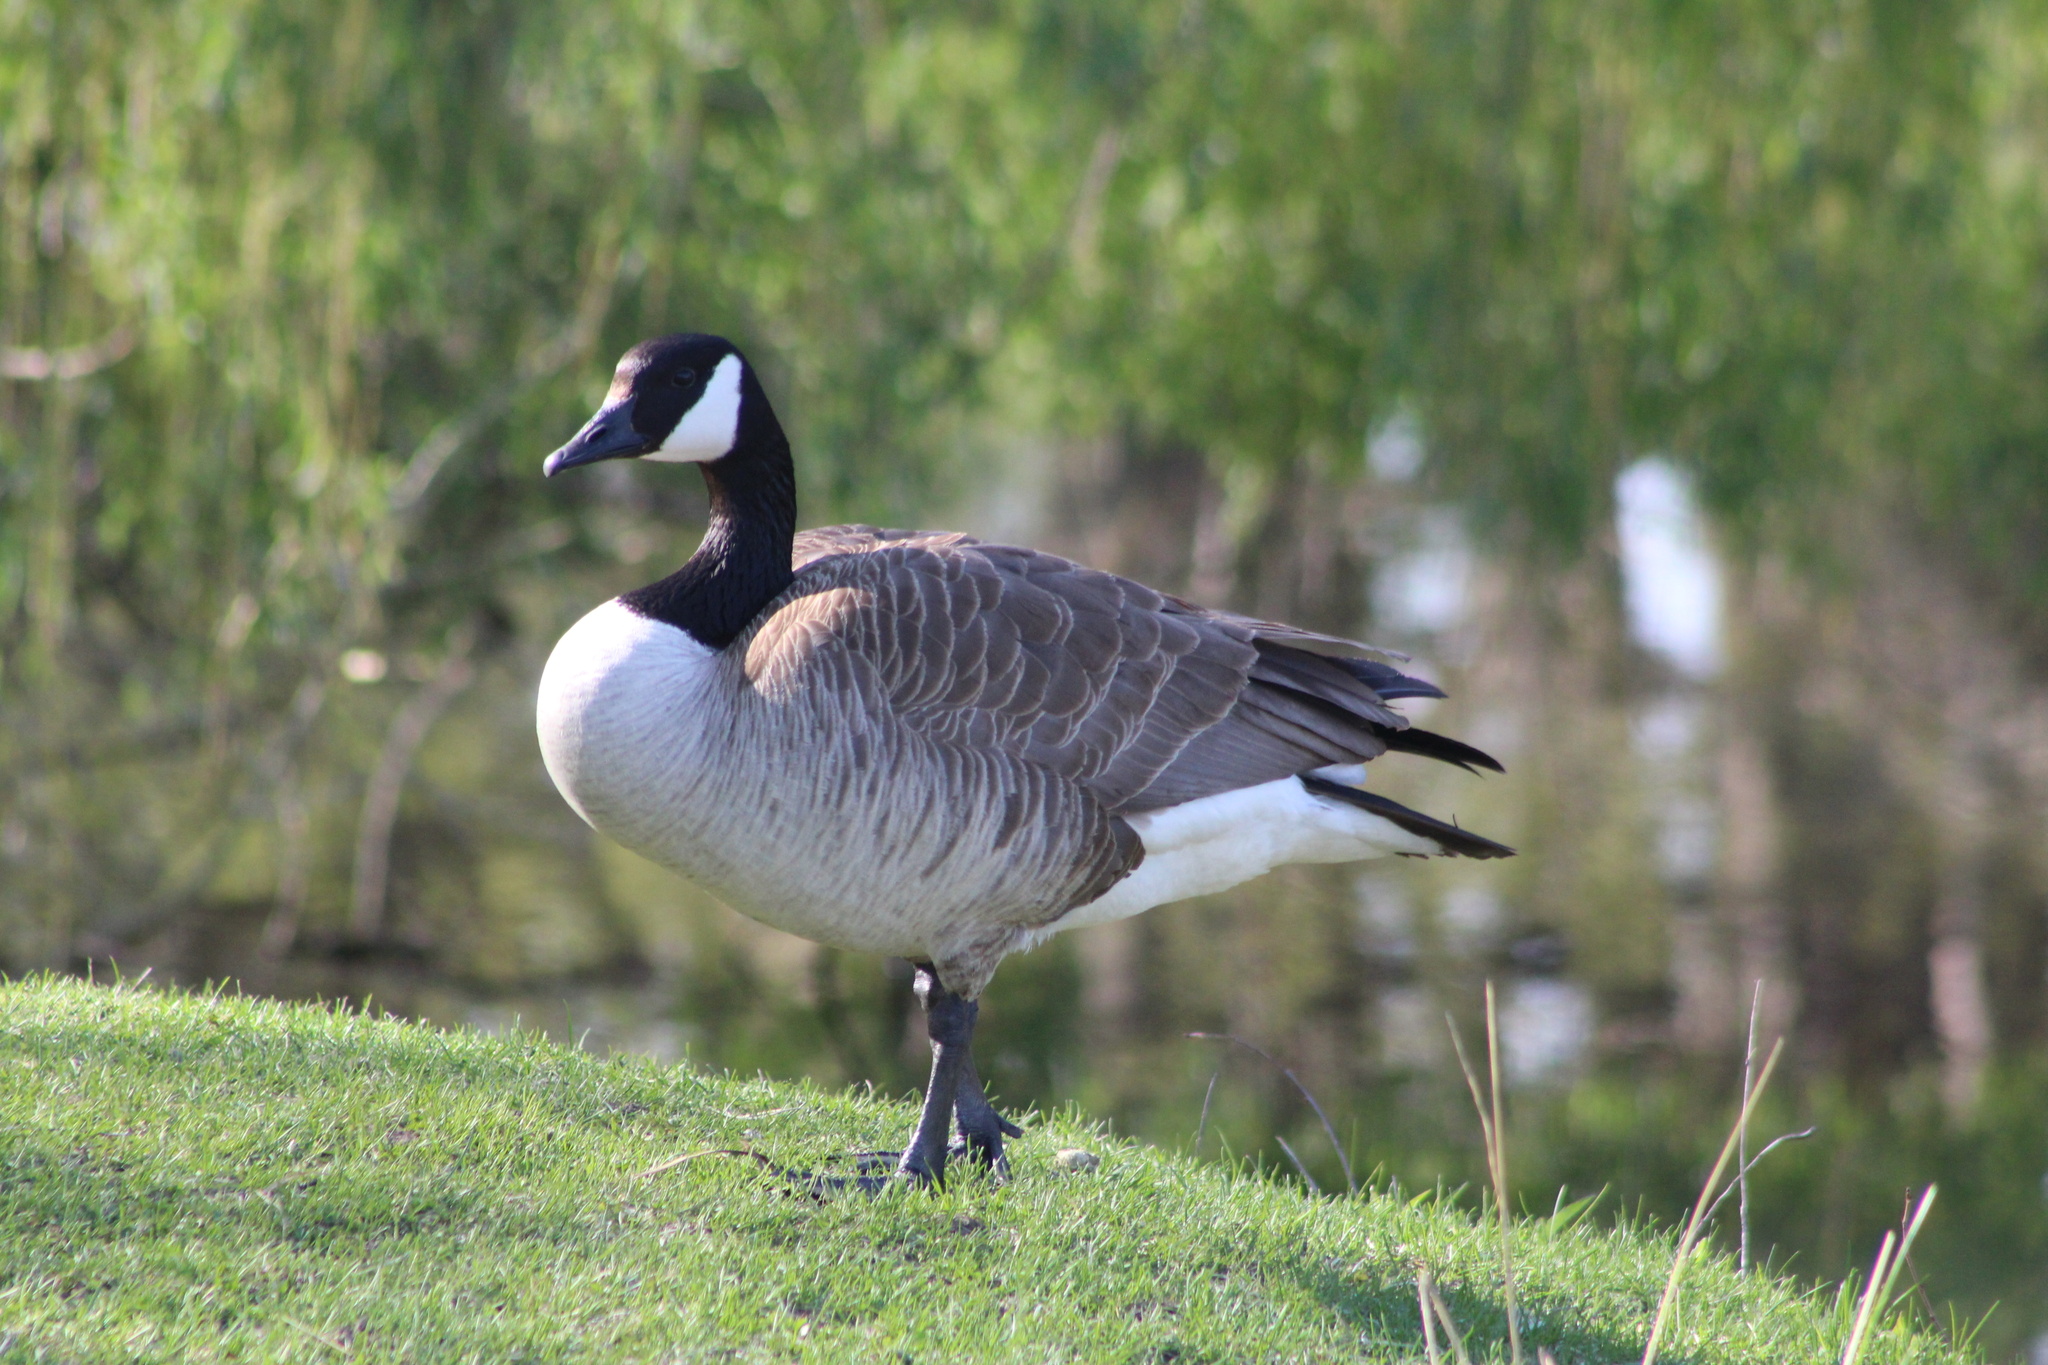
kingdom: Animalia
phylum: Chordata
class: Aves
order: Anseriformes
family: Anatidae
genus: Branta
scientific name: Branta canadensis
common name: Canada goose
